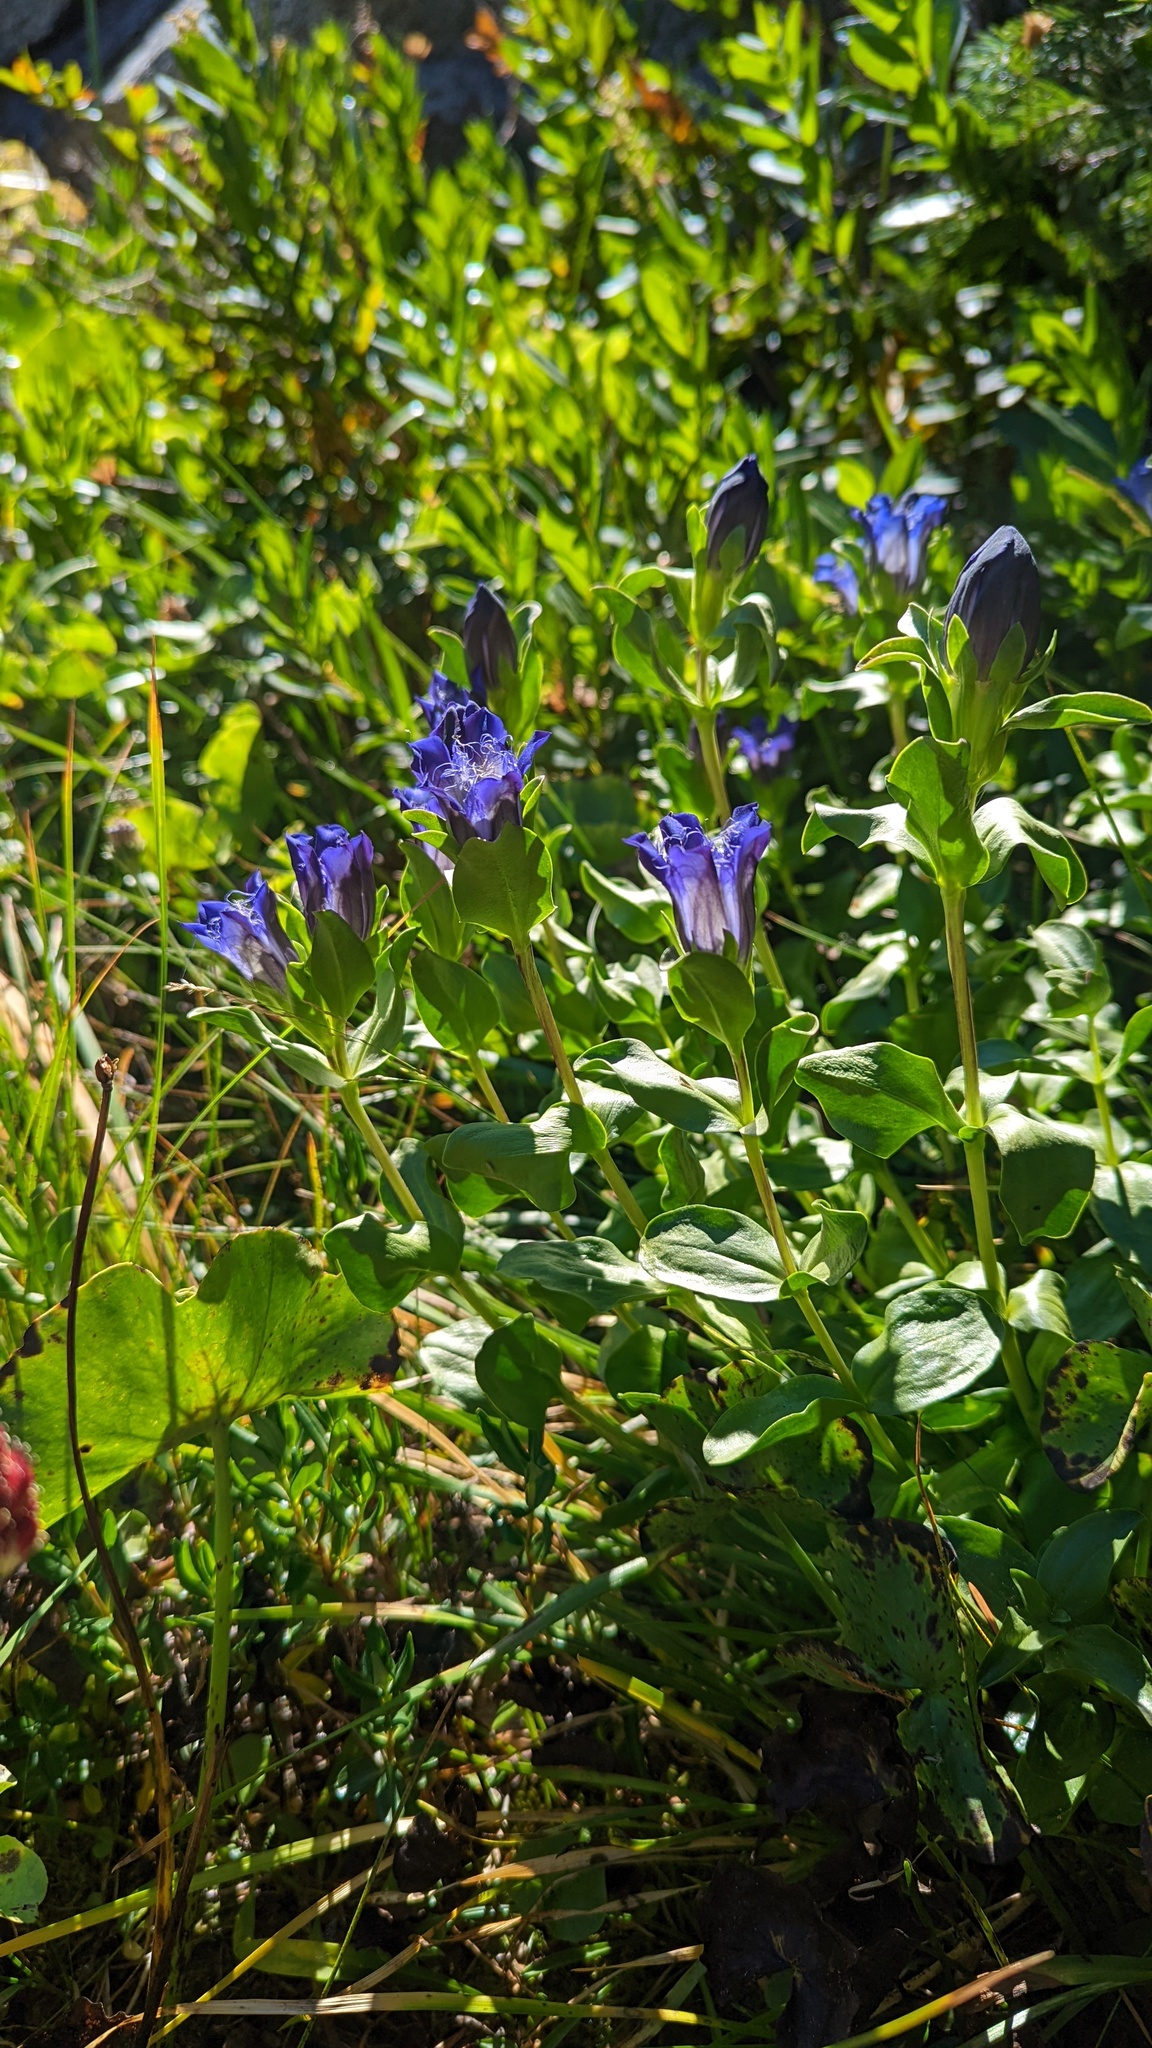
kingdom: Plantae
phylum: Tracheophyta
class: Magnoliopsida
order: Gentianales
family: Gentianaceae
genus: Gentiana
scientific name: Gentiana plurisetosa
